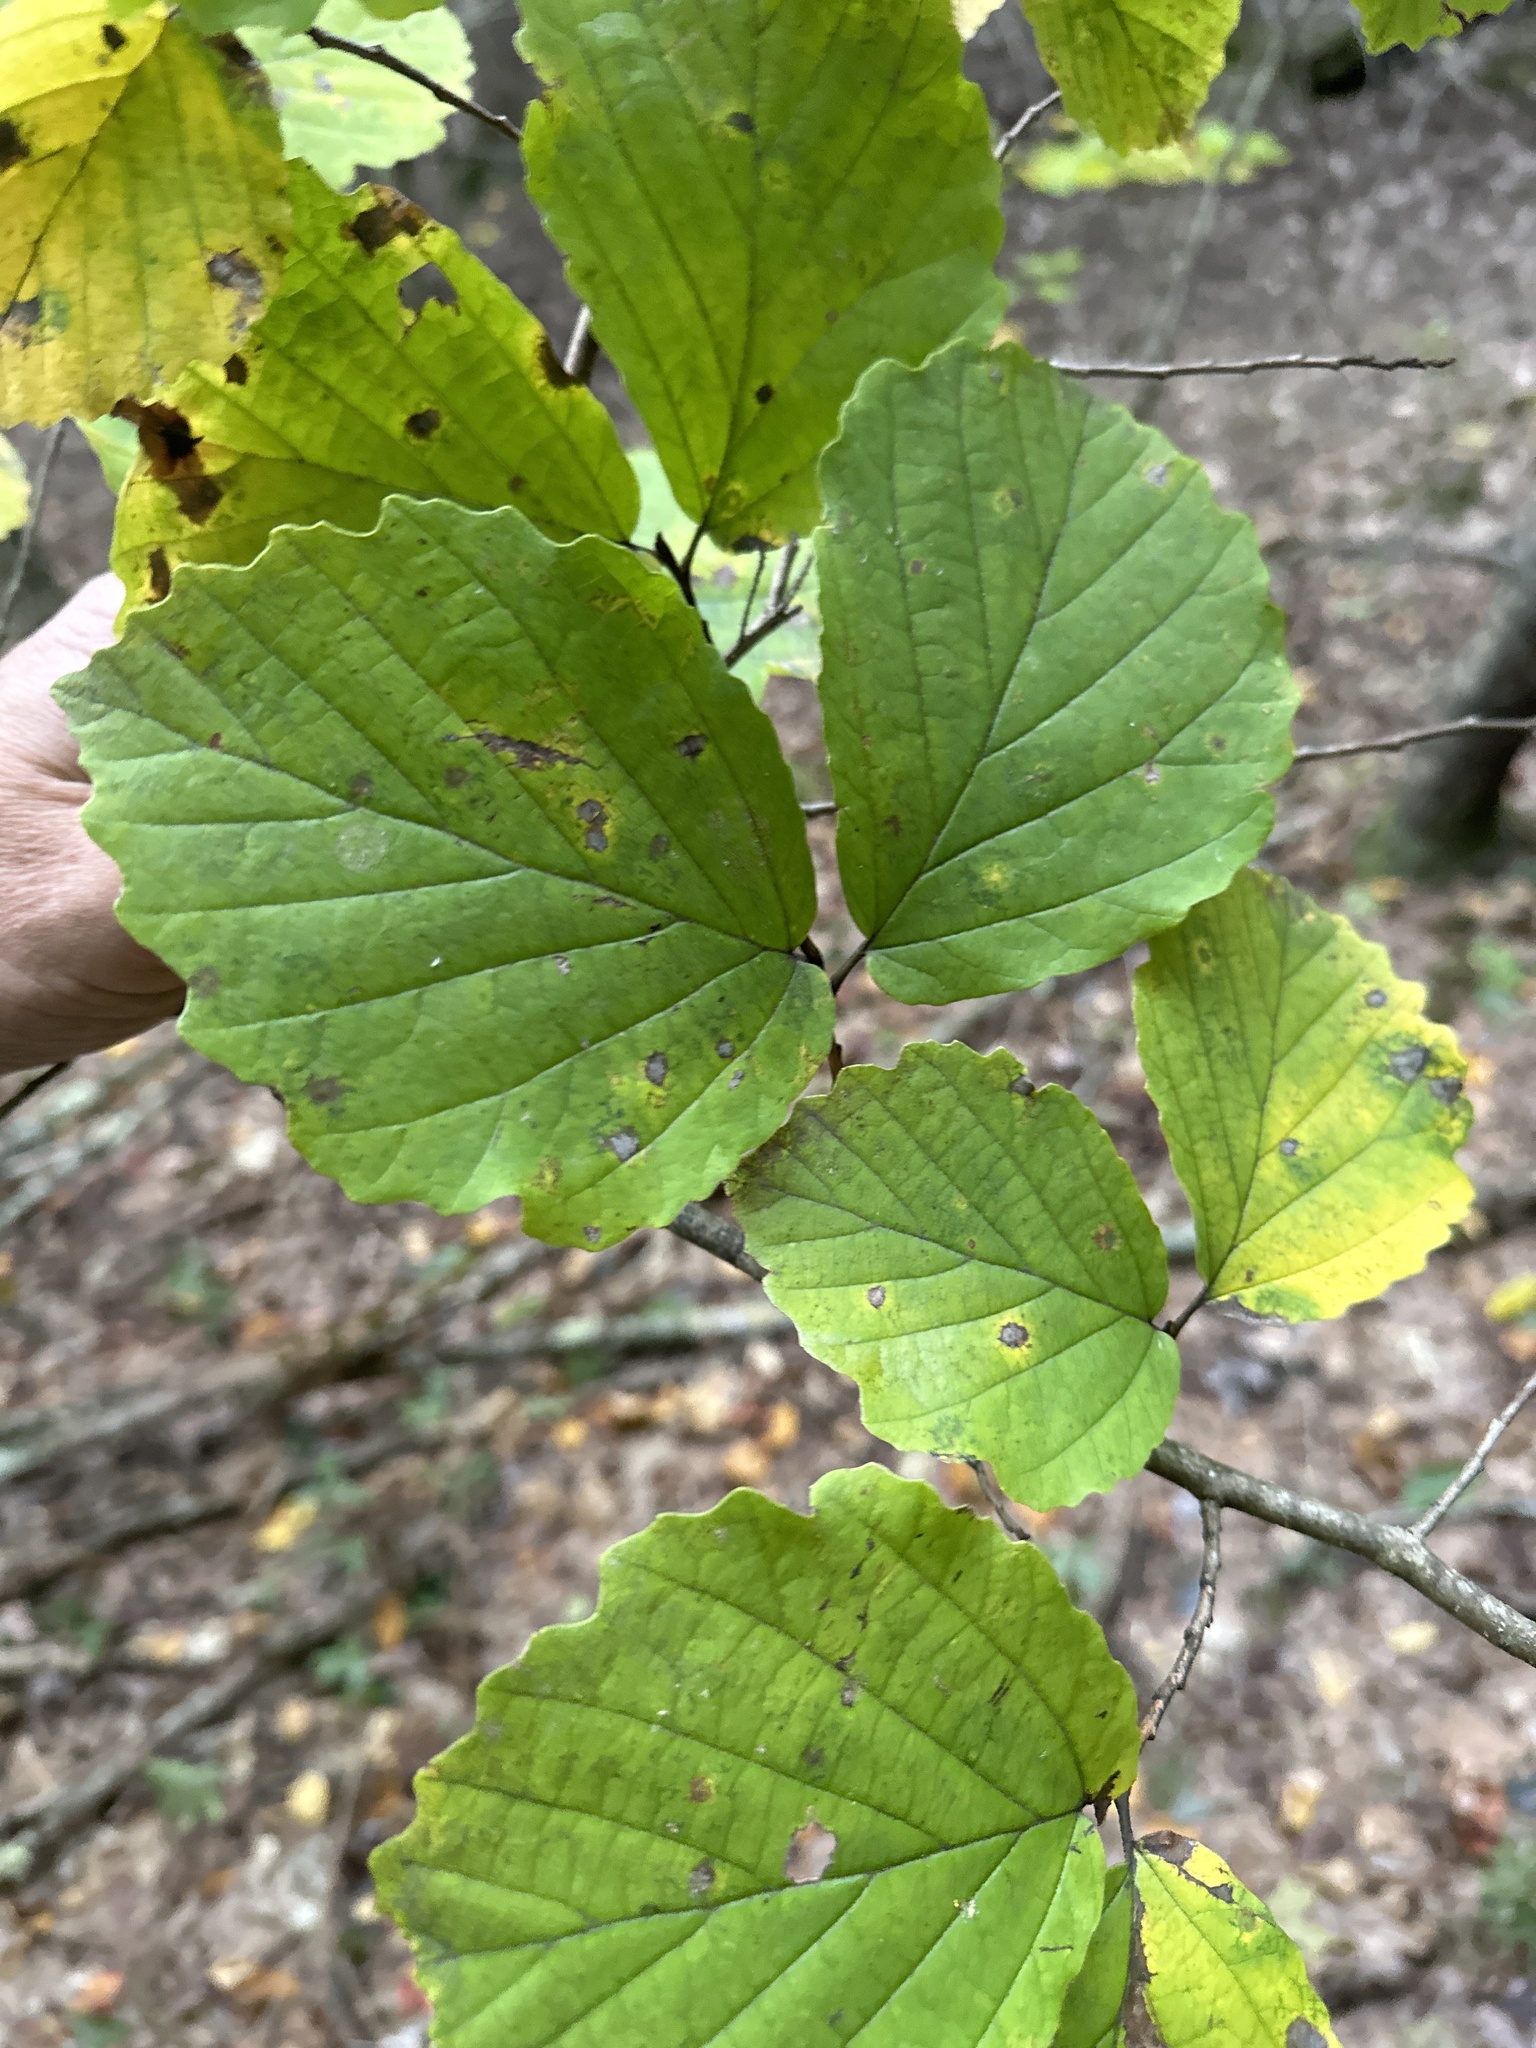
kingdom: Plantae
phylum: Tracheophyta
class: Magnoliopsida
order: Saxifragales
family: Hamamelidaceae
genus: Hamamelis
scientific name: Hamamelis virginiana
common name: Witch-hazel
